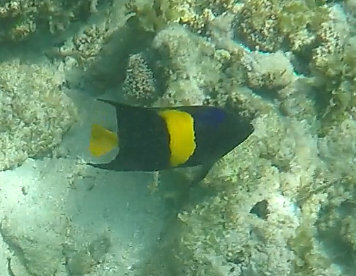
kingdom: Animalia
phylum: Chordata
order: Perciformes
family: Pomacanthidae
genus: Pomacanthus
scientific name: Pomacanthus asfur
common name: Arabian angelfish
